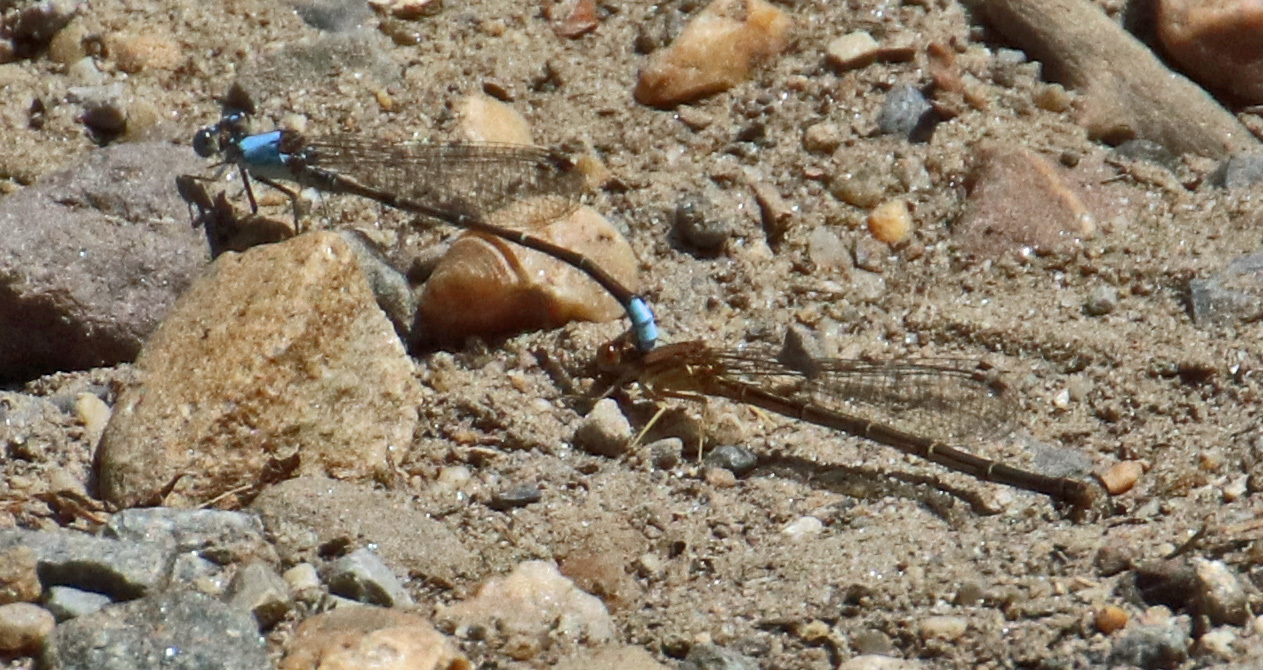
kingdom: Animalia
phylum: Arthropoda
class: Insecta
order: Odonata
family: Coenagrionidae
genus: Argia
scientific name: Argia apicalis
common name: Blue-fronted dancer
